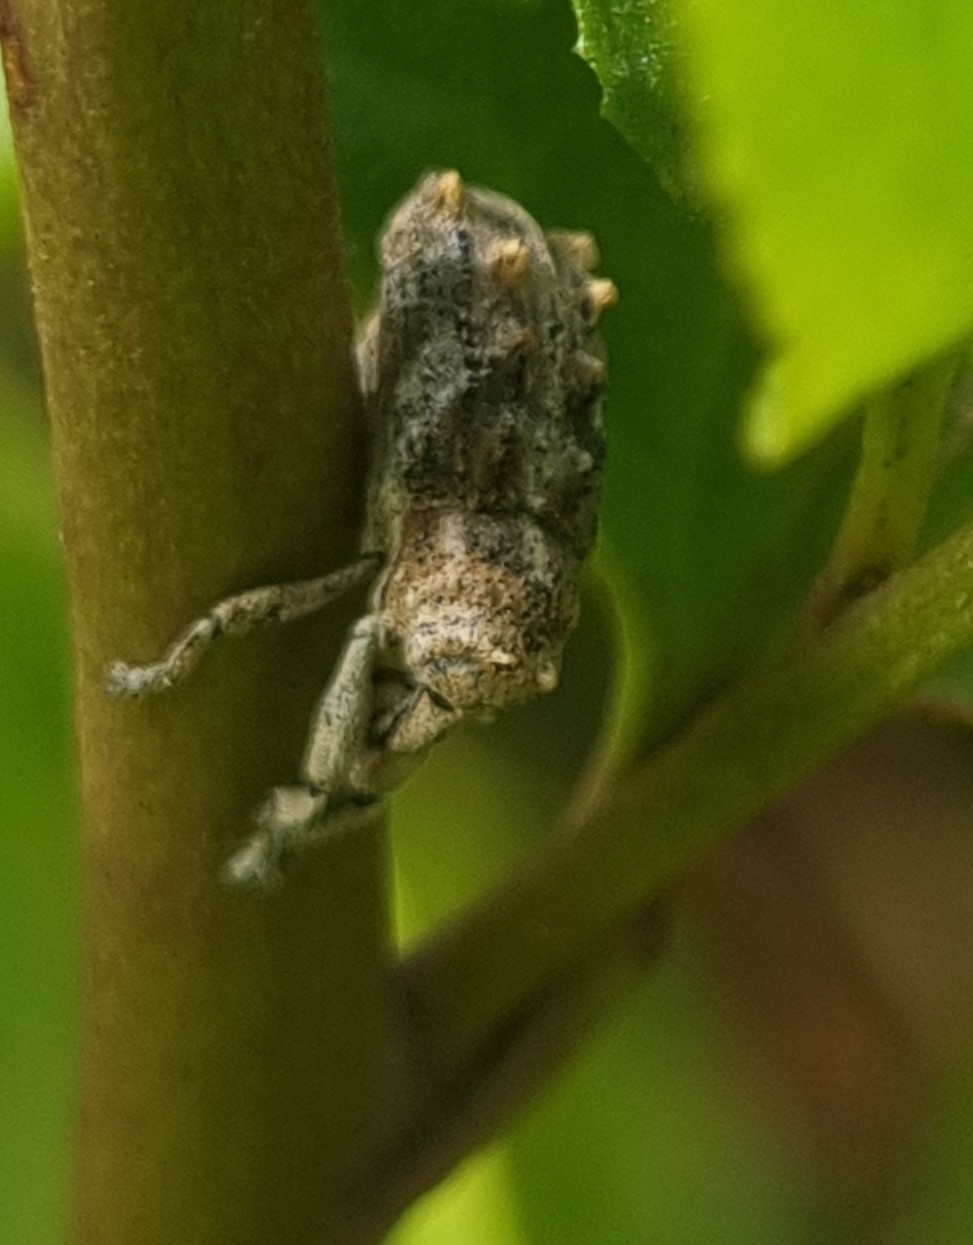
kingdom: Animalia
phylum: Arthropoda
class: Insecta
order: Coleoptera
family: Curculionidae
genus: Orthorhinus
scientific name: Orthorhinus klugii
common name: Vine weevil
